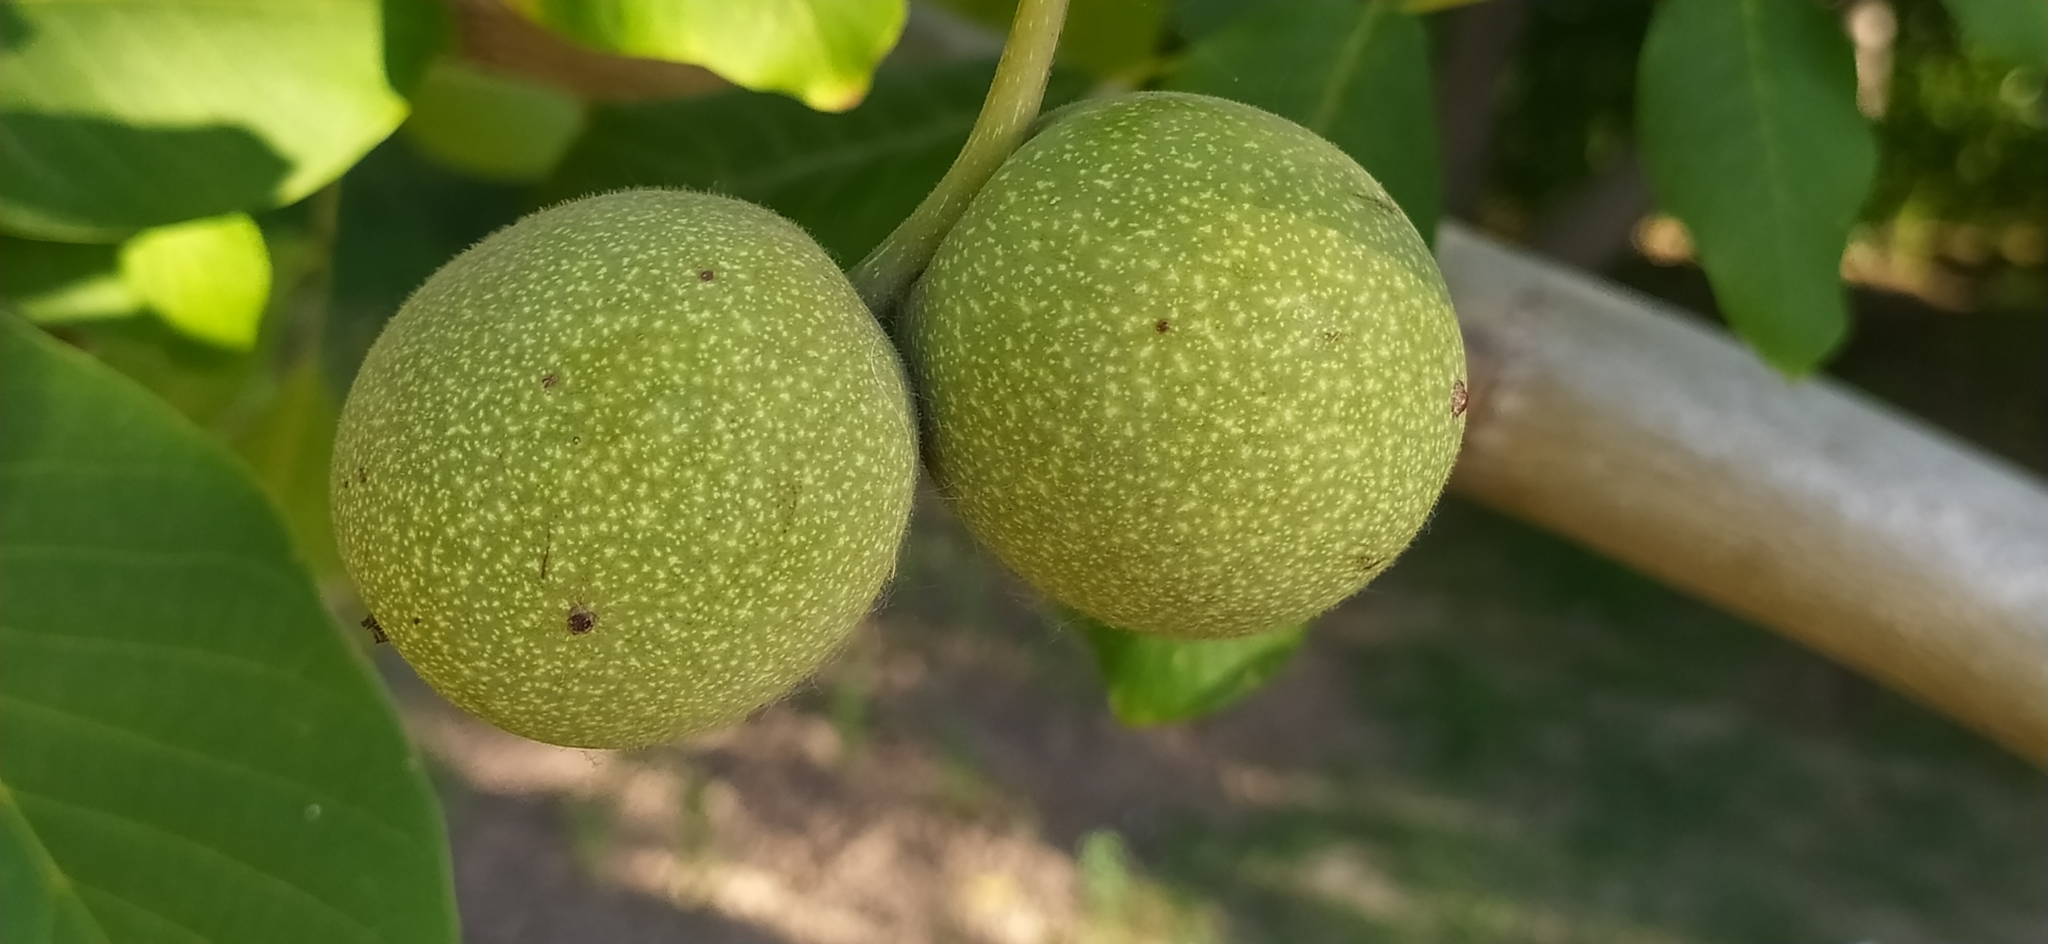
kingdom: Plantae
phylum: Tracheophyta
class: Magnoliopsida
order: Fagales
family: Juglandaceae
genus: Juglans
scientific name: Juglans regia
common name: Walnut
